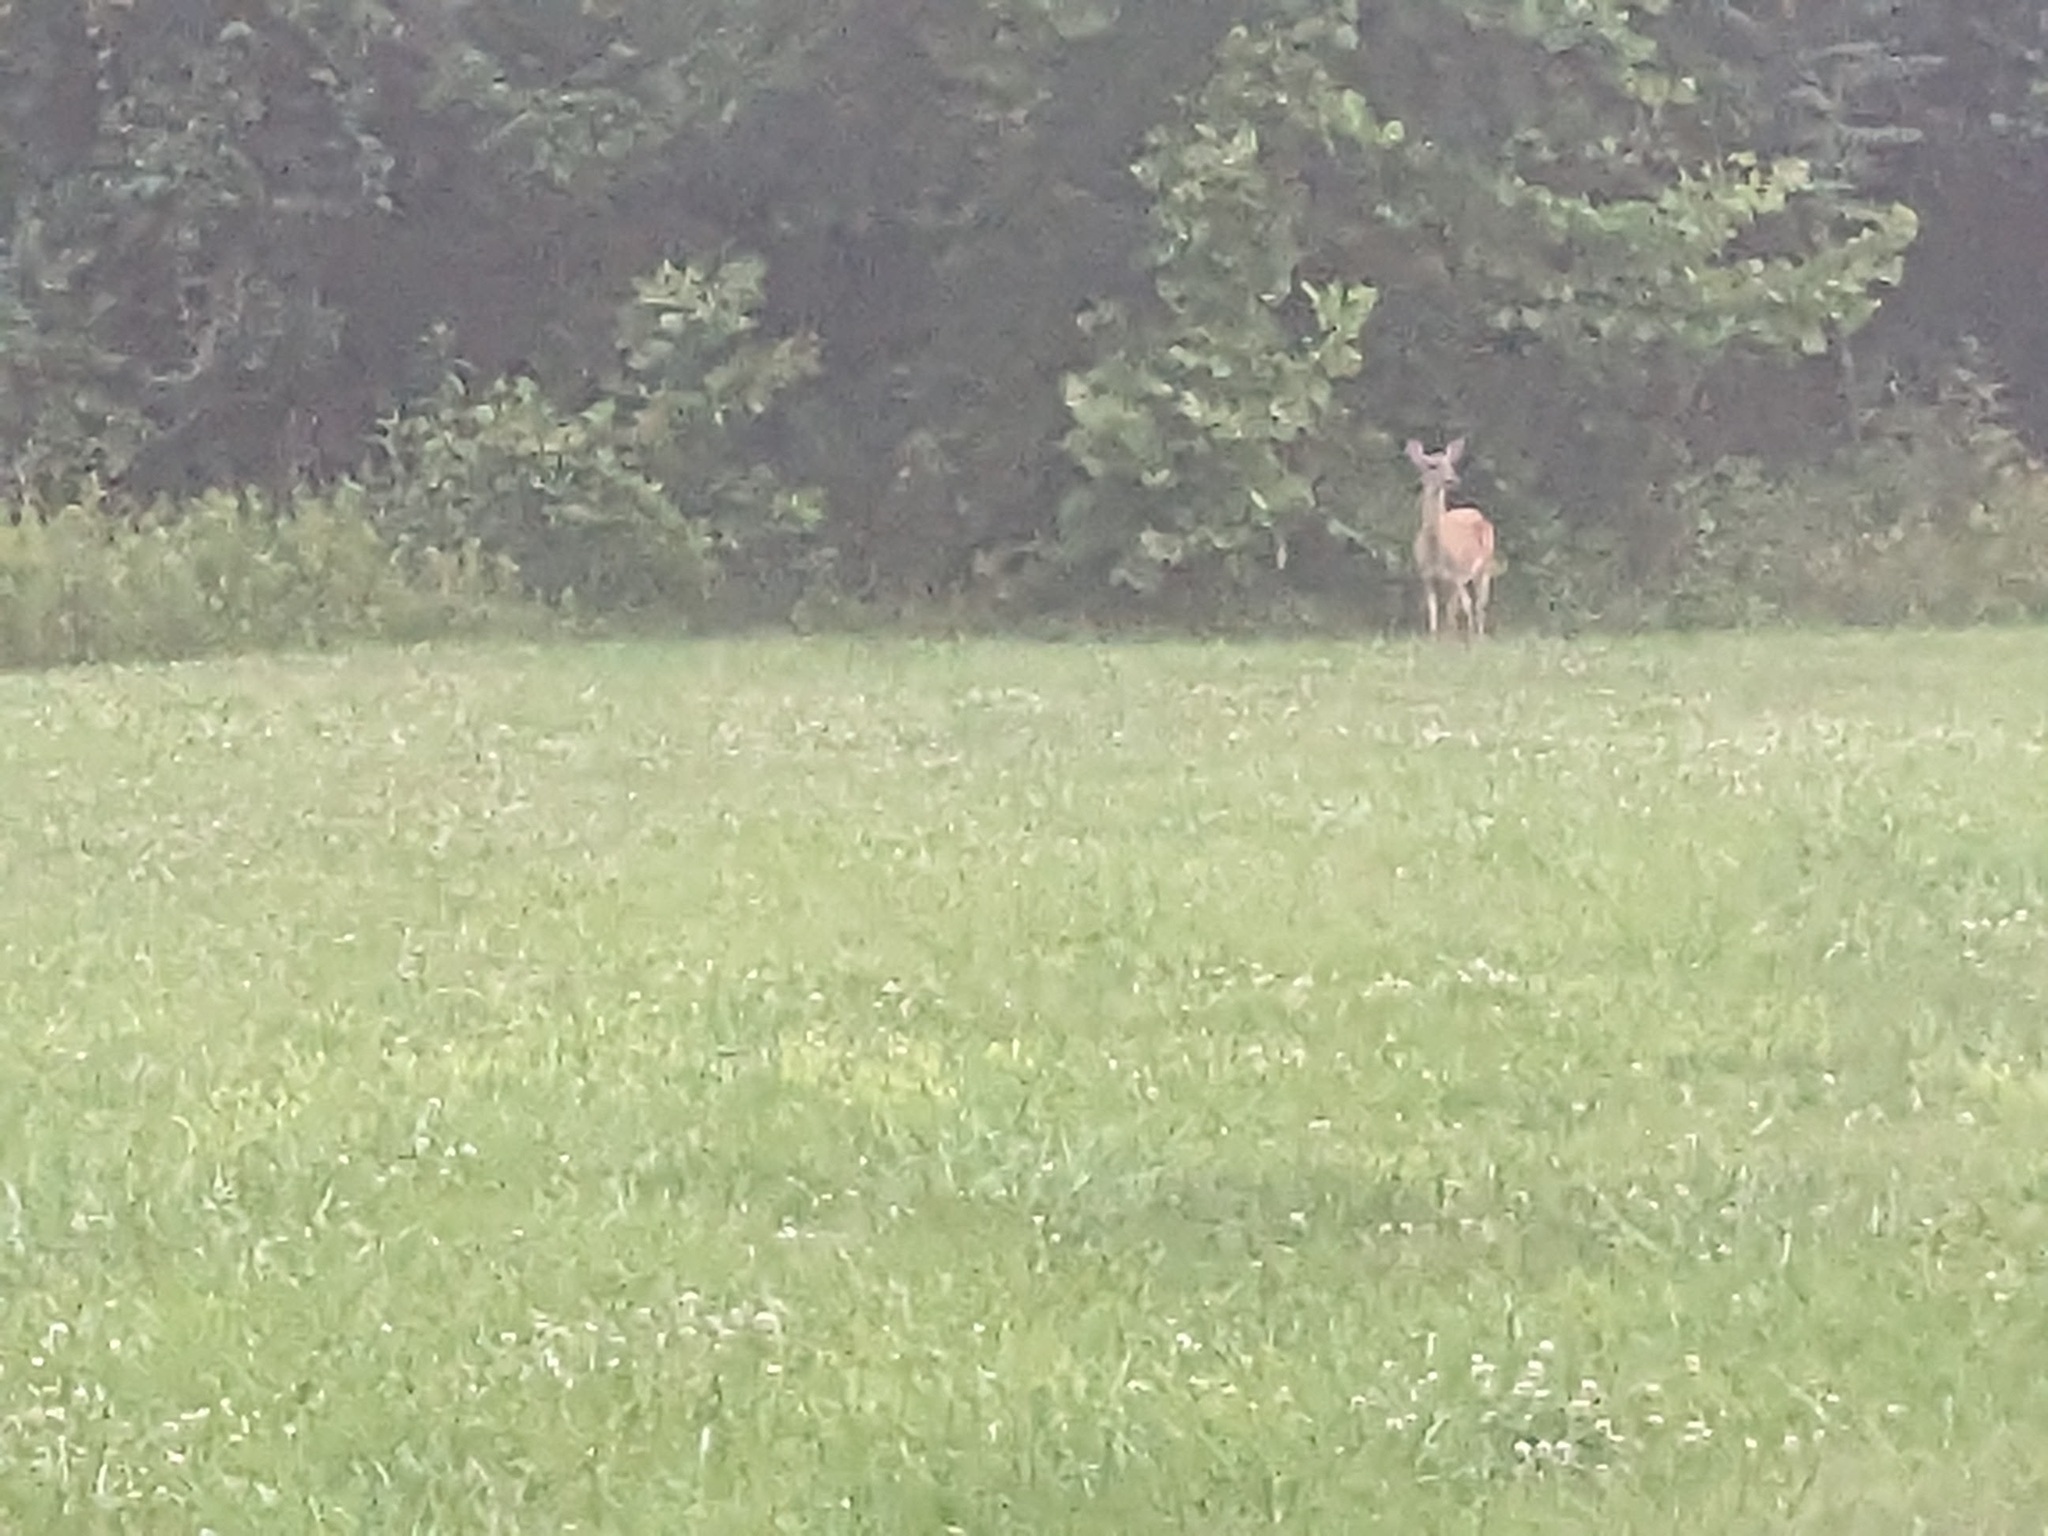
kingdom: Animalia
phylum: Chordata
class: Mammalia
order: Artiodactyla
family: Cervidae
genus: Odocoileus
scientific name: Odocoileus virginianus
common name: White-tailed deer
